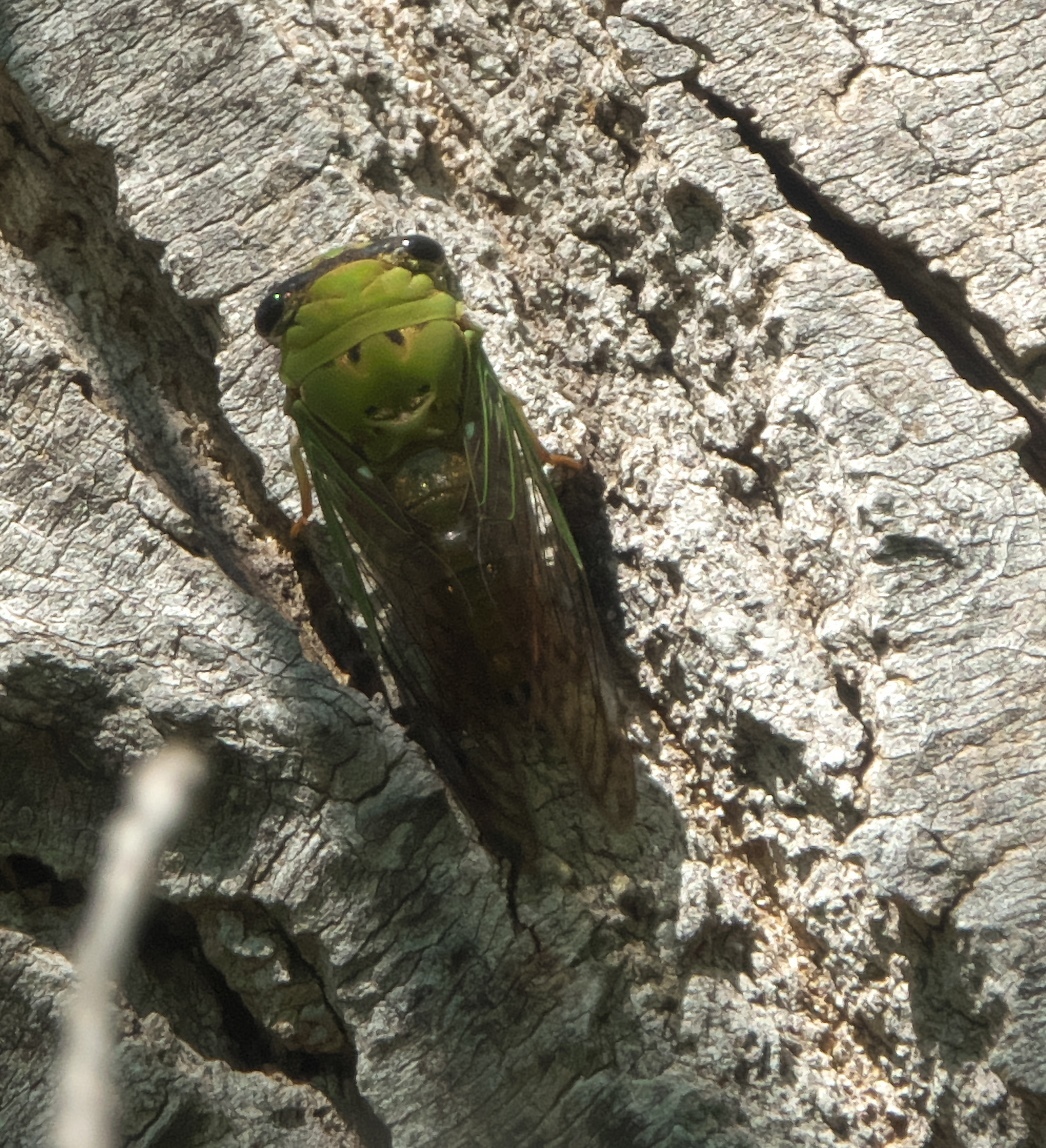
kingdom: Animalia
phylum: Arthropoda
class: Insecta
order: Hemiptera
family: Cicadidae
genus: Neotibicen
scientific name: Neotibicen superbus
